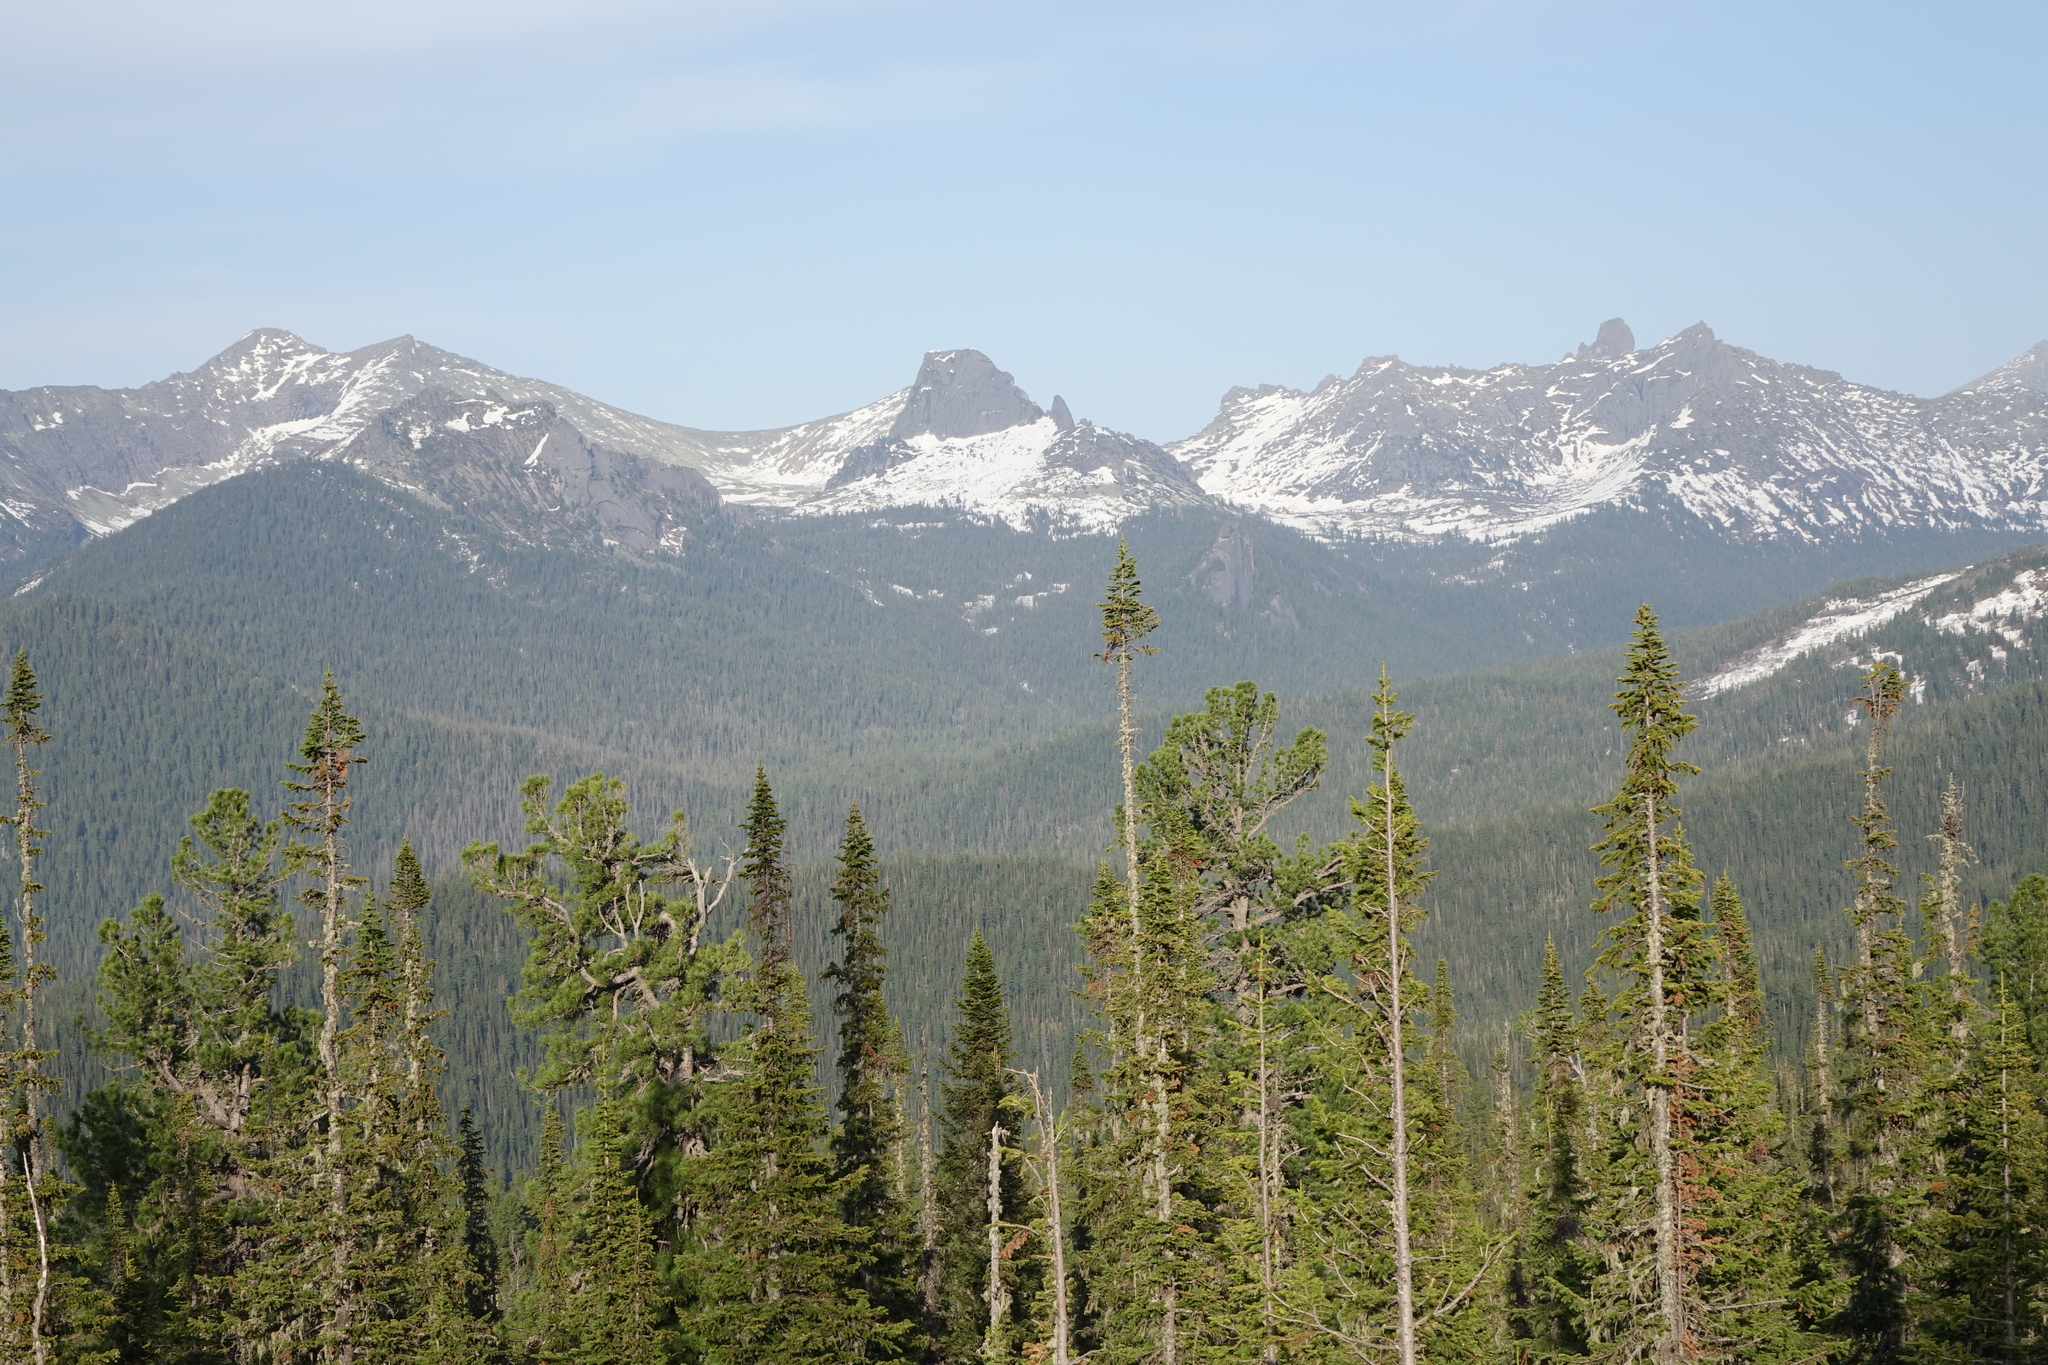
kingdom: Plantae
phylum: Tracheophyta
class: Pinopsida
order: Pinales
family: Pinaceae
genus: Abies
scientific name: Abies sibirica
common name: Siberian fir
